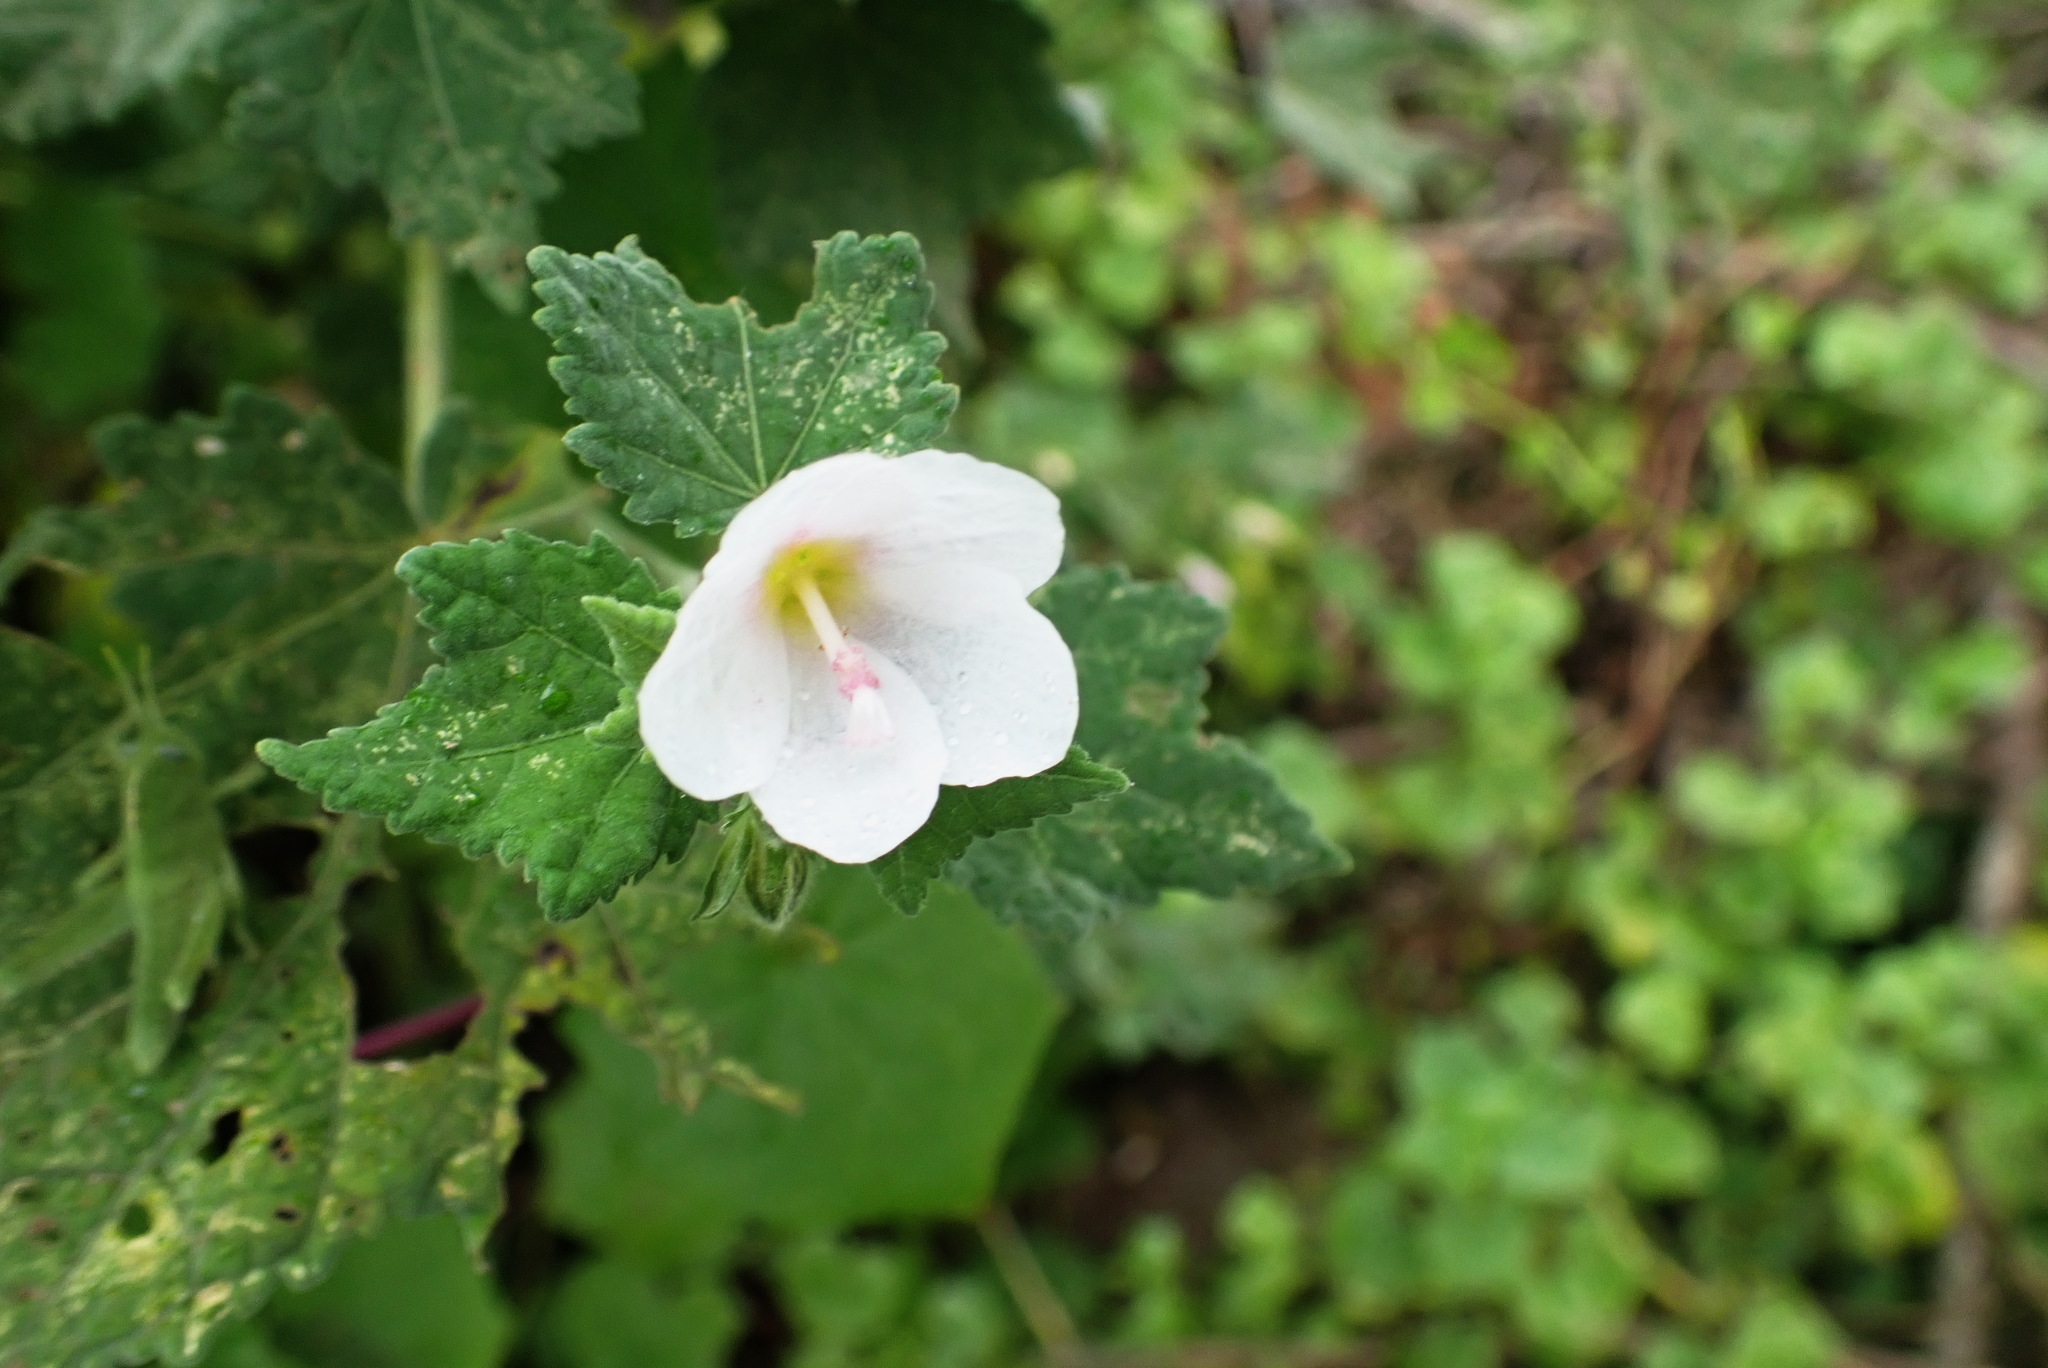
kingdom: Plantae
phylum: Tracheophyta
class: Magnoliopsida
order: Malvales
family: Malvaceae
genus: Pavonia
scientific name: Pavonia columella
